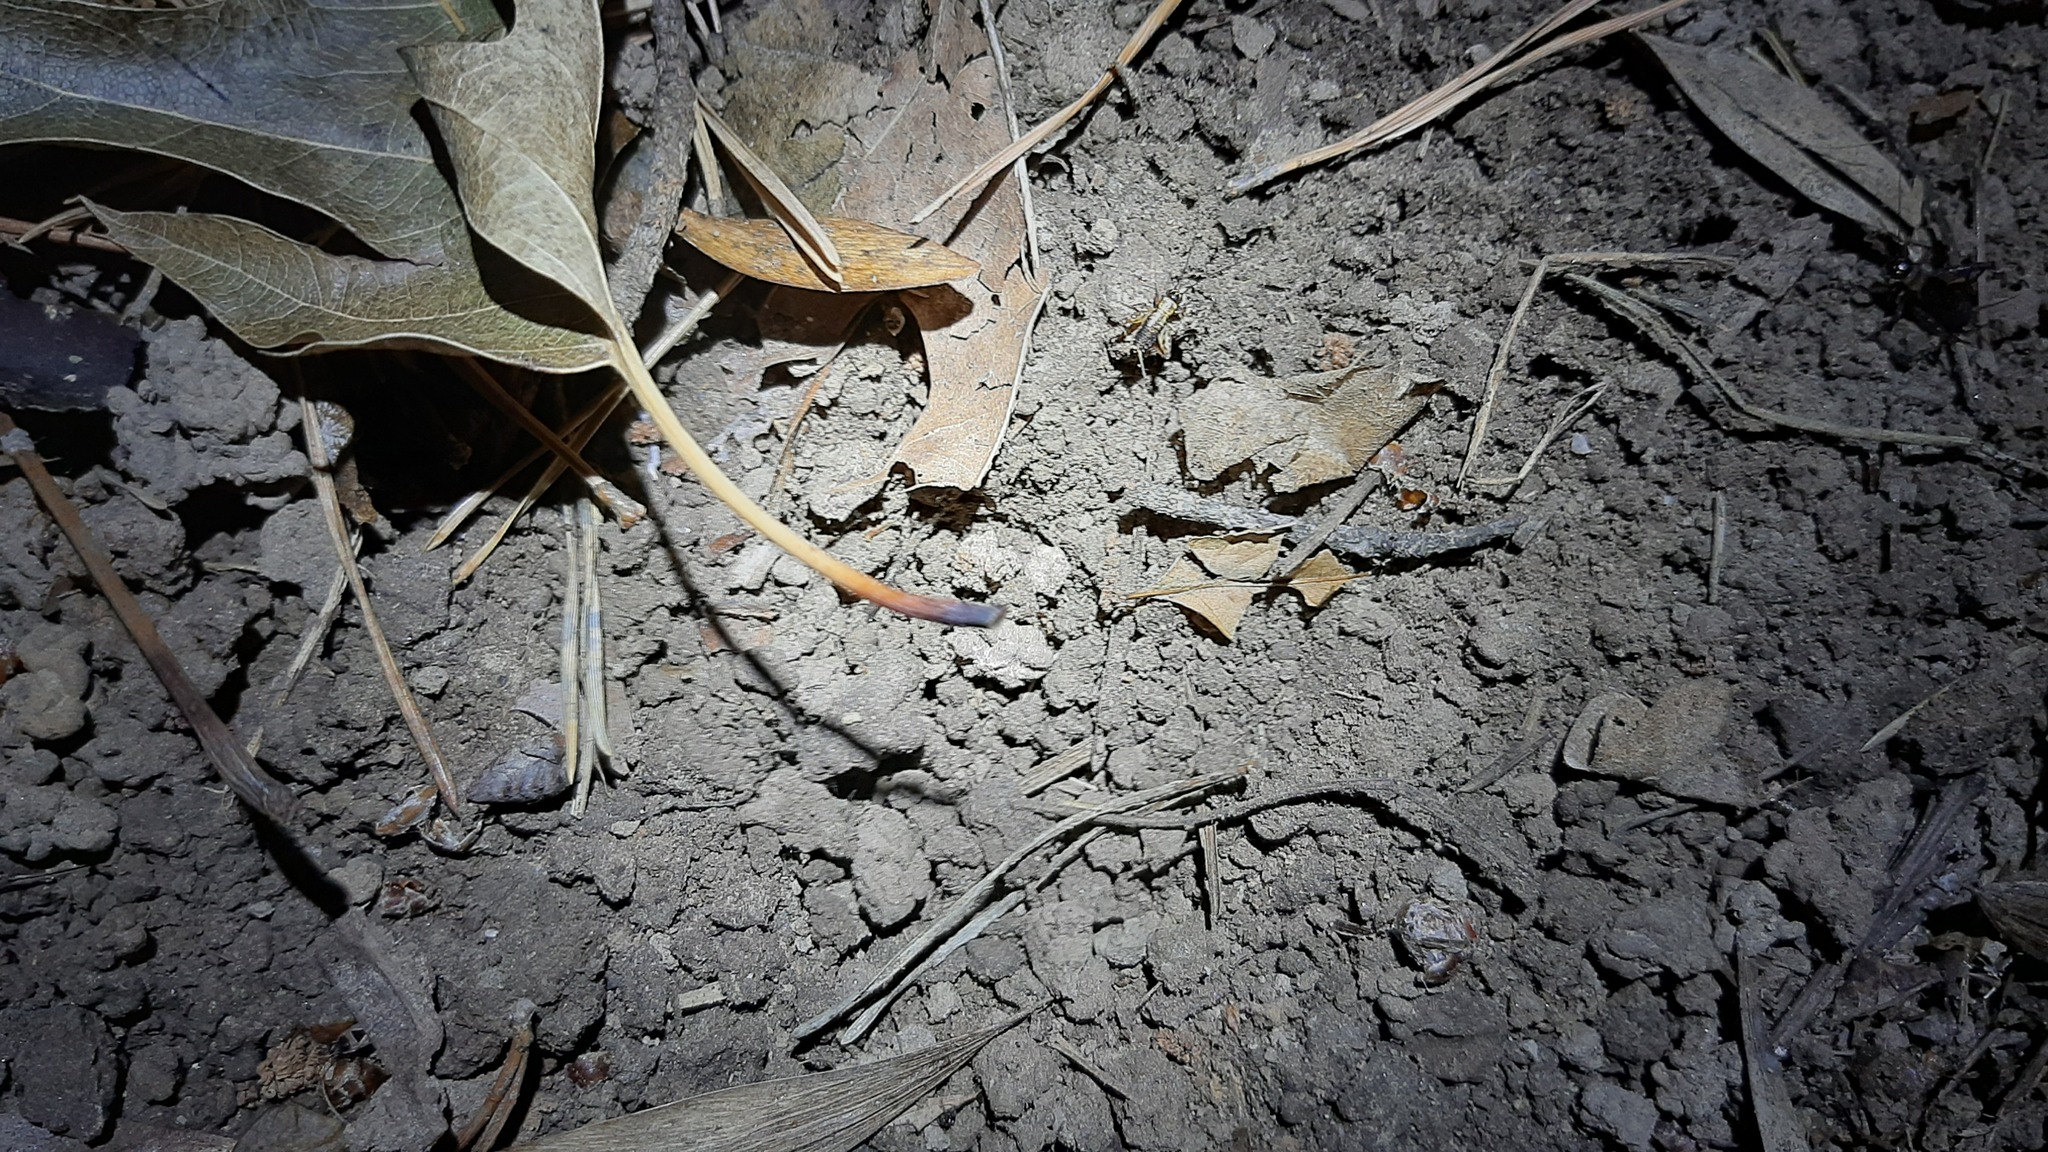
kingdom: Animalia
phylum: Arthropoda
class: Insecta
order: Orthoptera
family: Trigonidiidae
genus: Nemobius
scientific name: Nemobius sylvestris
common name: Wood-cricket
